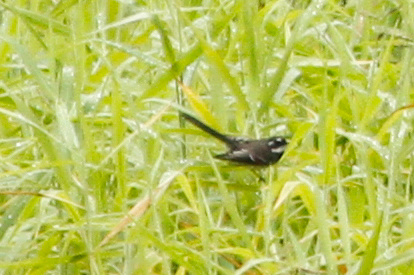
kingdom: Animalia
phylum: Chordata
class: Aves
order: Passeriformes
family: Rhipiduridae
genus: Rhipidura
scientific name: Rhipidura albiscapa
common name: Grey fantail
